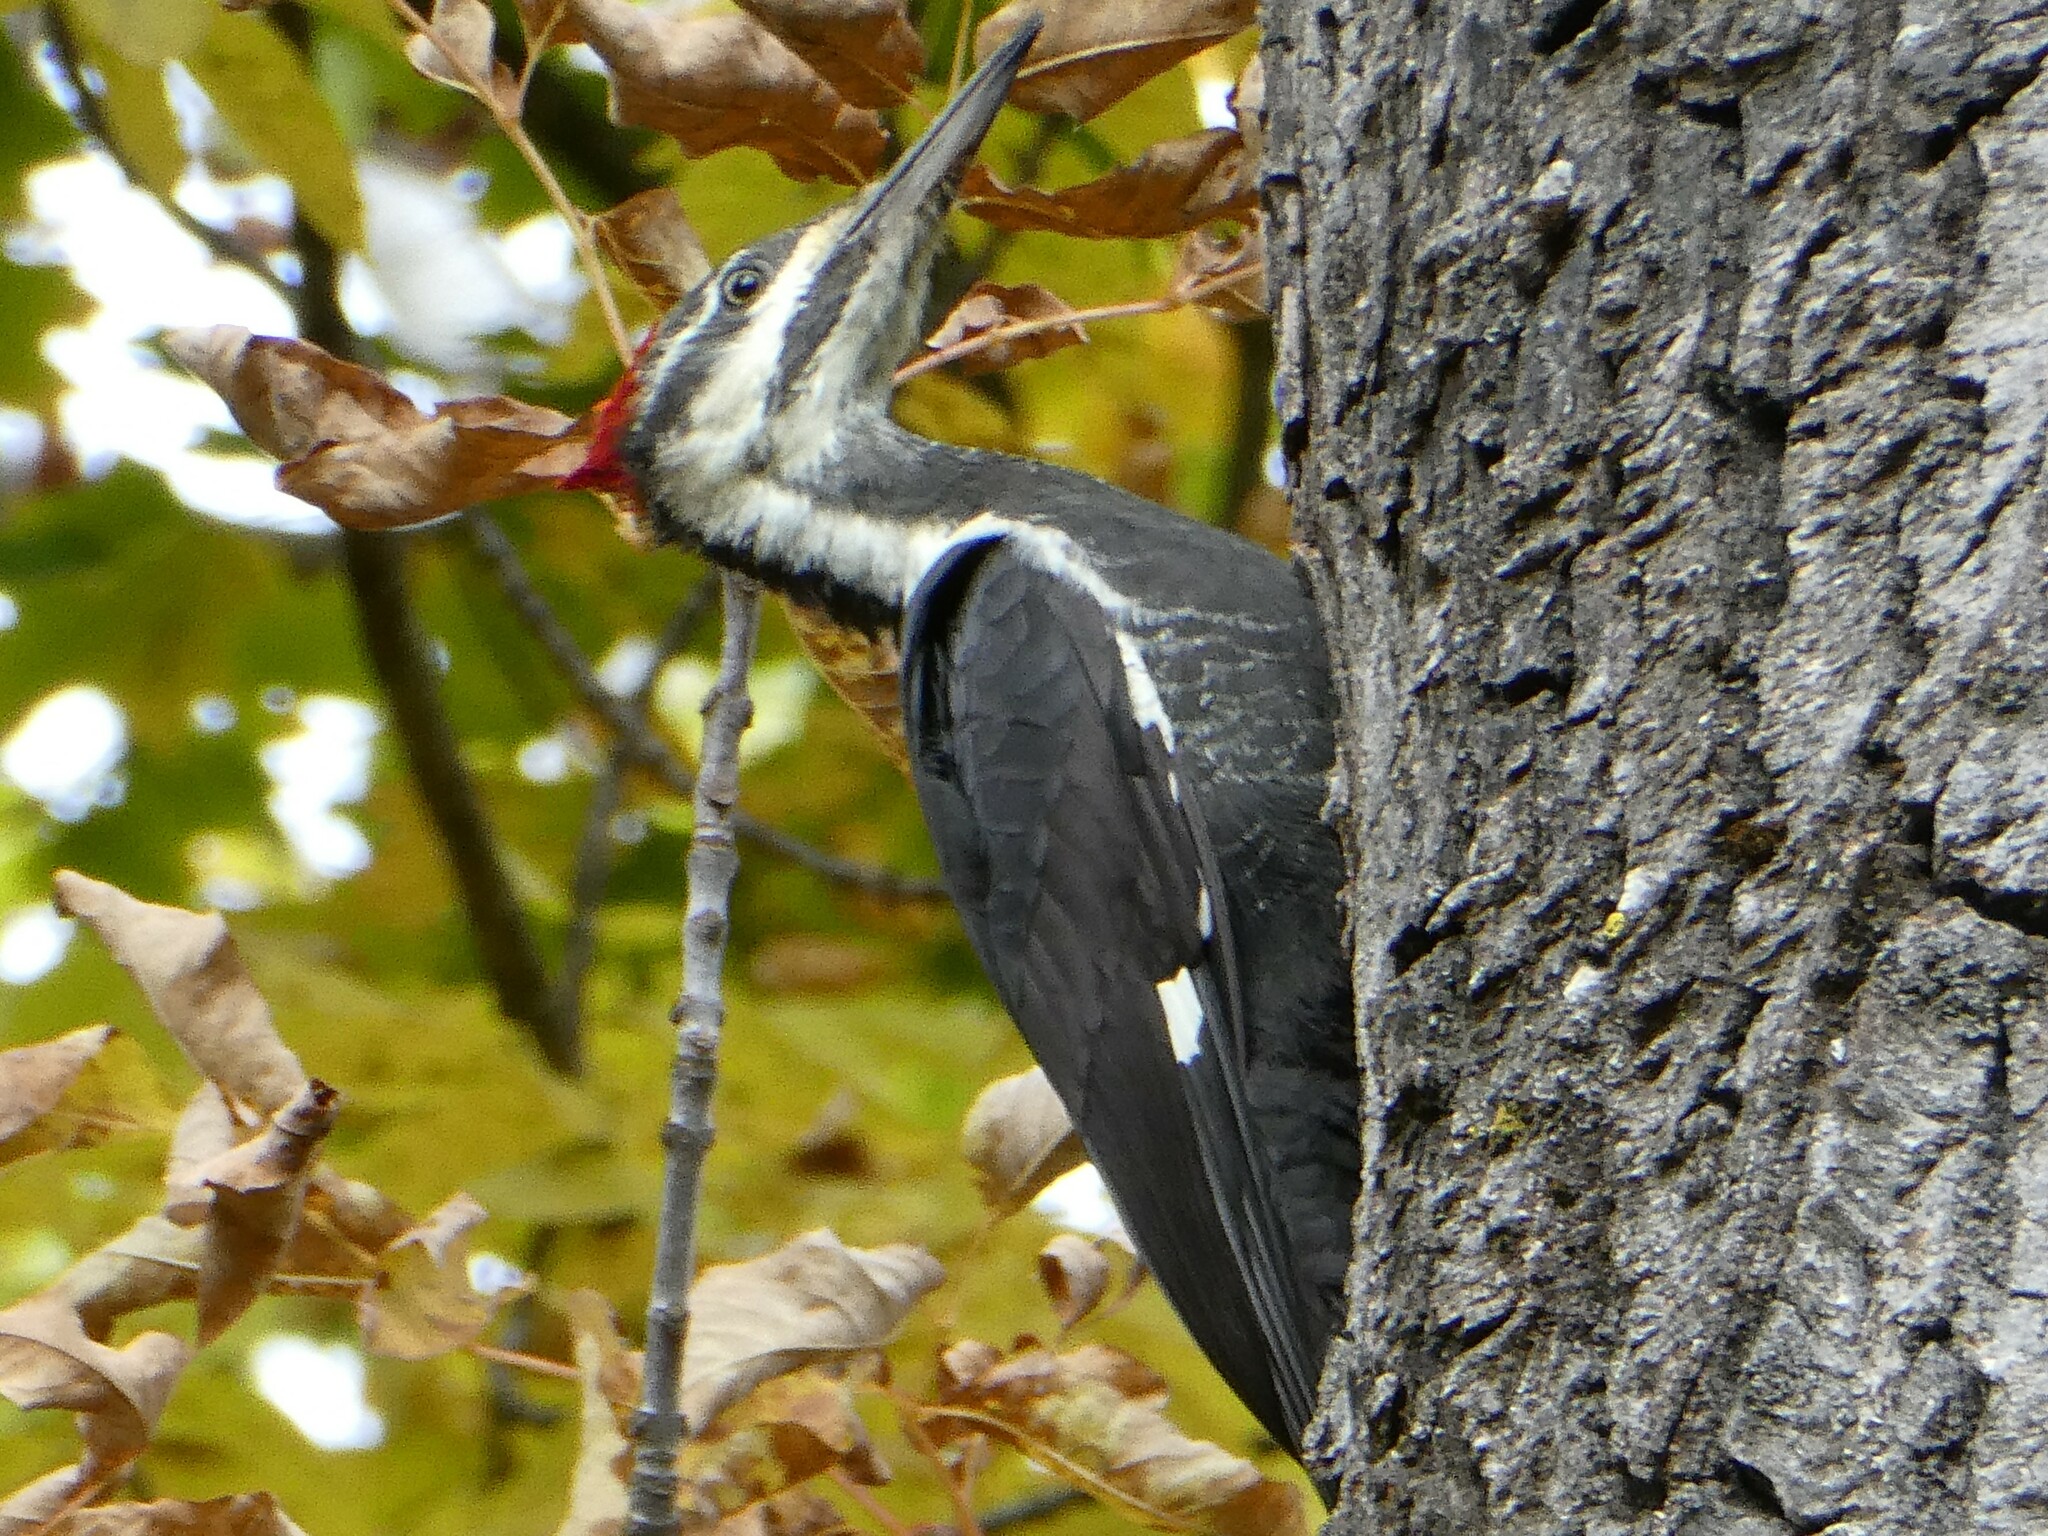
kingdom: Animalia
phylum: Chordata
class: Aves
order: Piciformes
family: Picidae
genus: Dryocopus
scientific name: Dryocopus pileatus
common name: Pileated woodpecker
